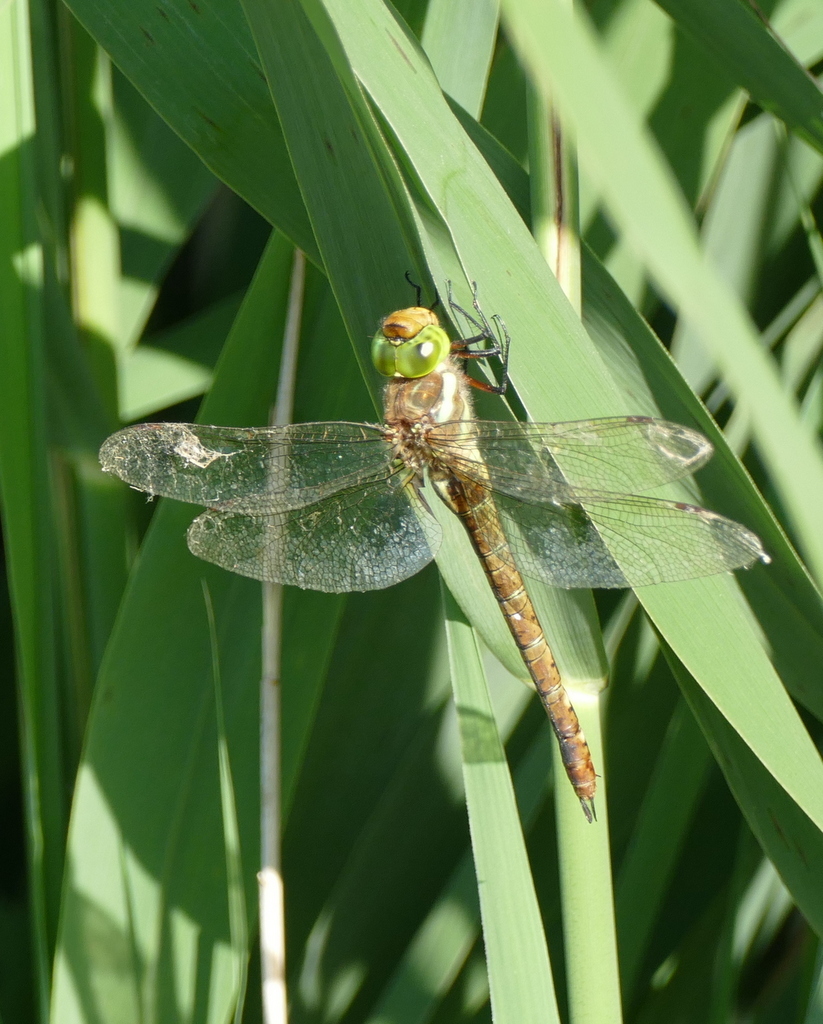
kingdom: Animalia
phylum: Arthropoda
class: Insecta
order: Odonata
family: Aeshnidae
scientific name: Aeshnidae
